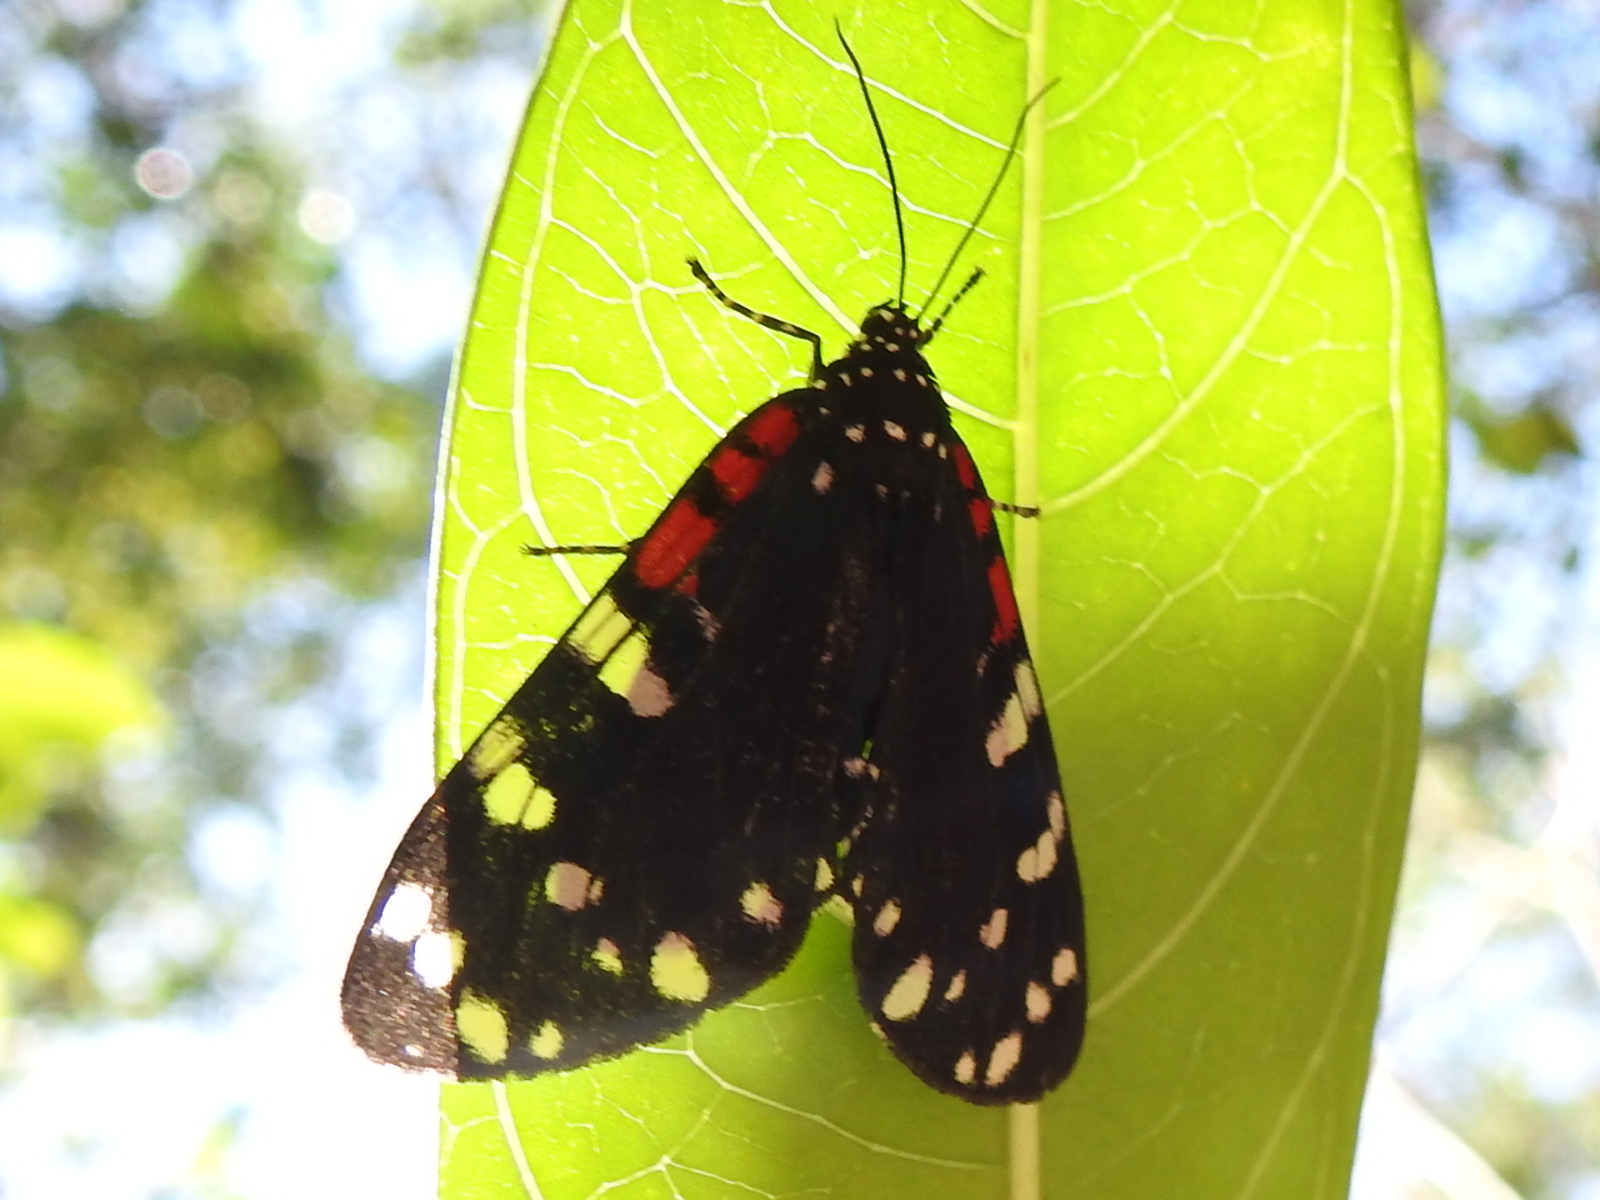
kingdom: Animalia
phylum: Arthropoda
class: Insecta
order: Lepidoptera
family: Erebidae
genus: Composia
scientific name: Composia fidelissima
